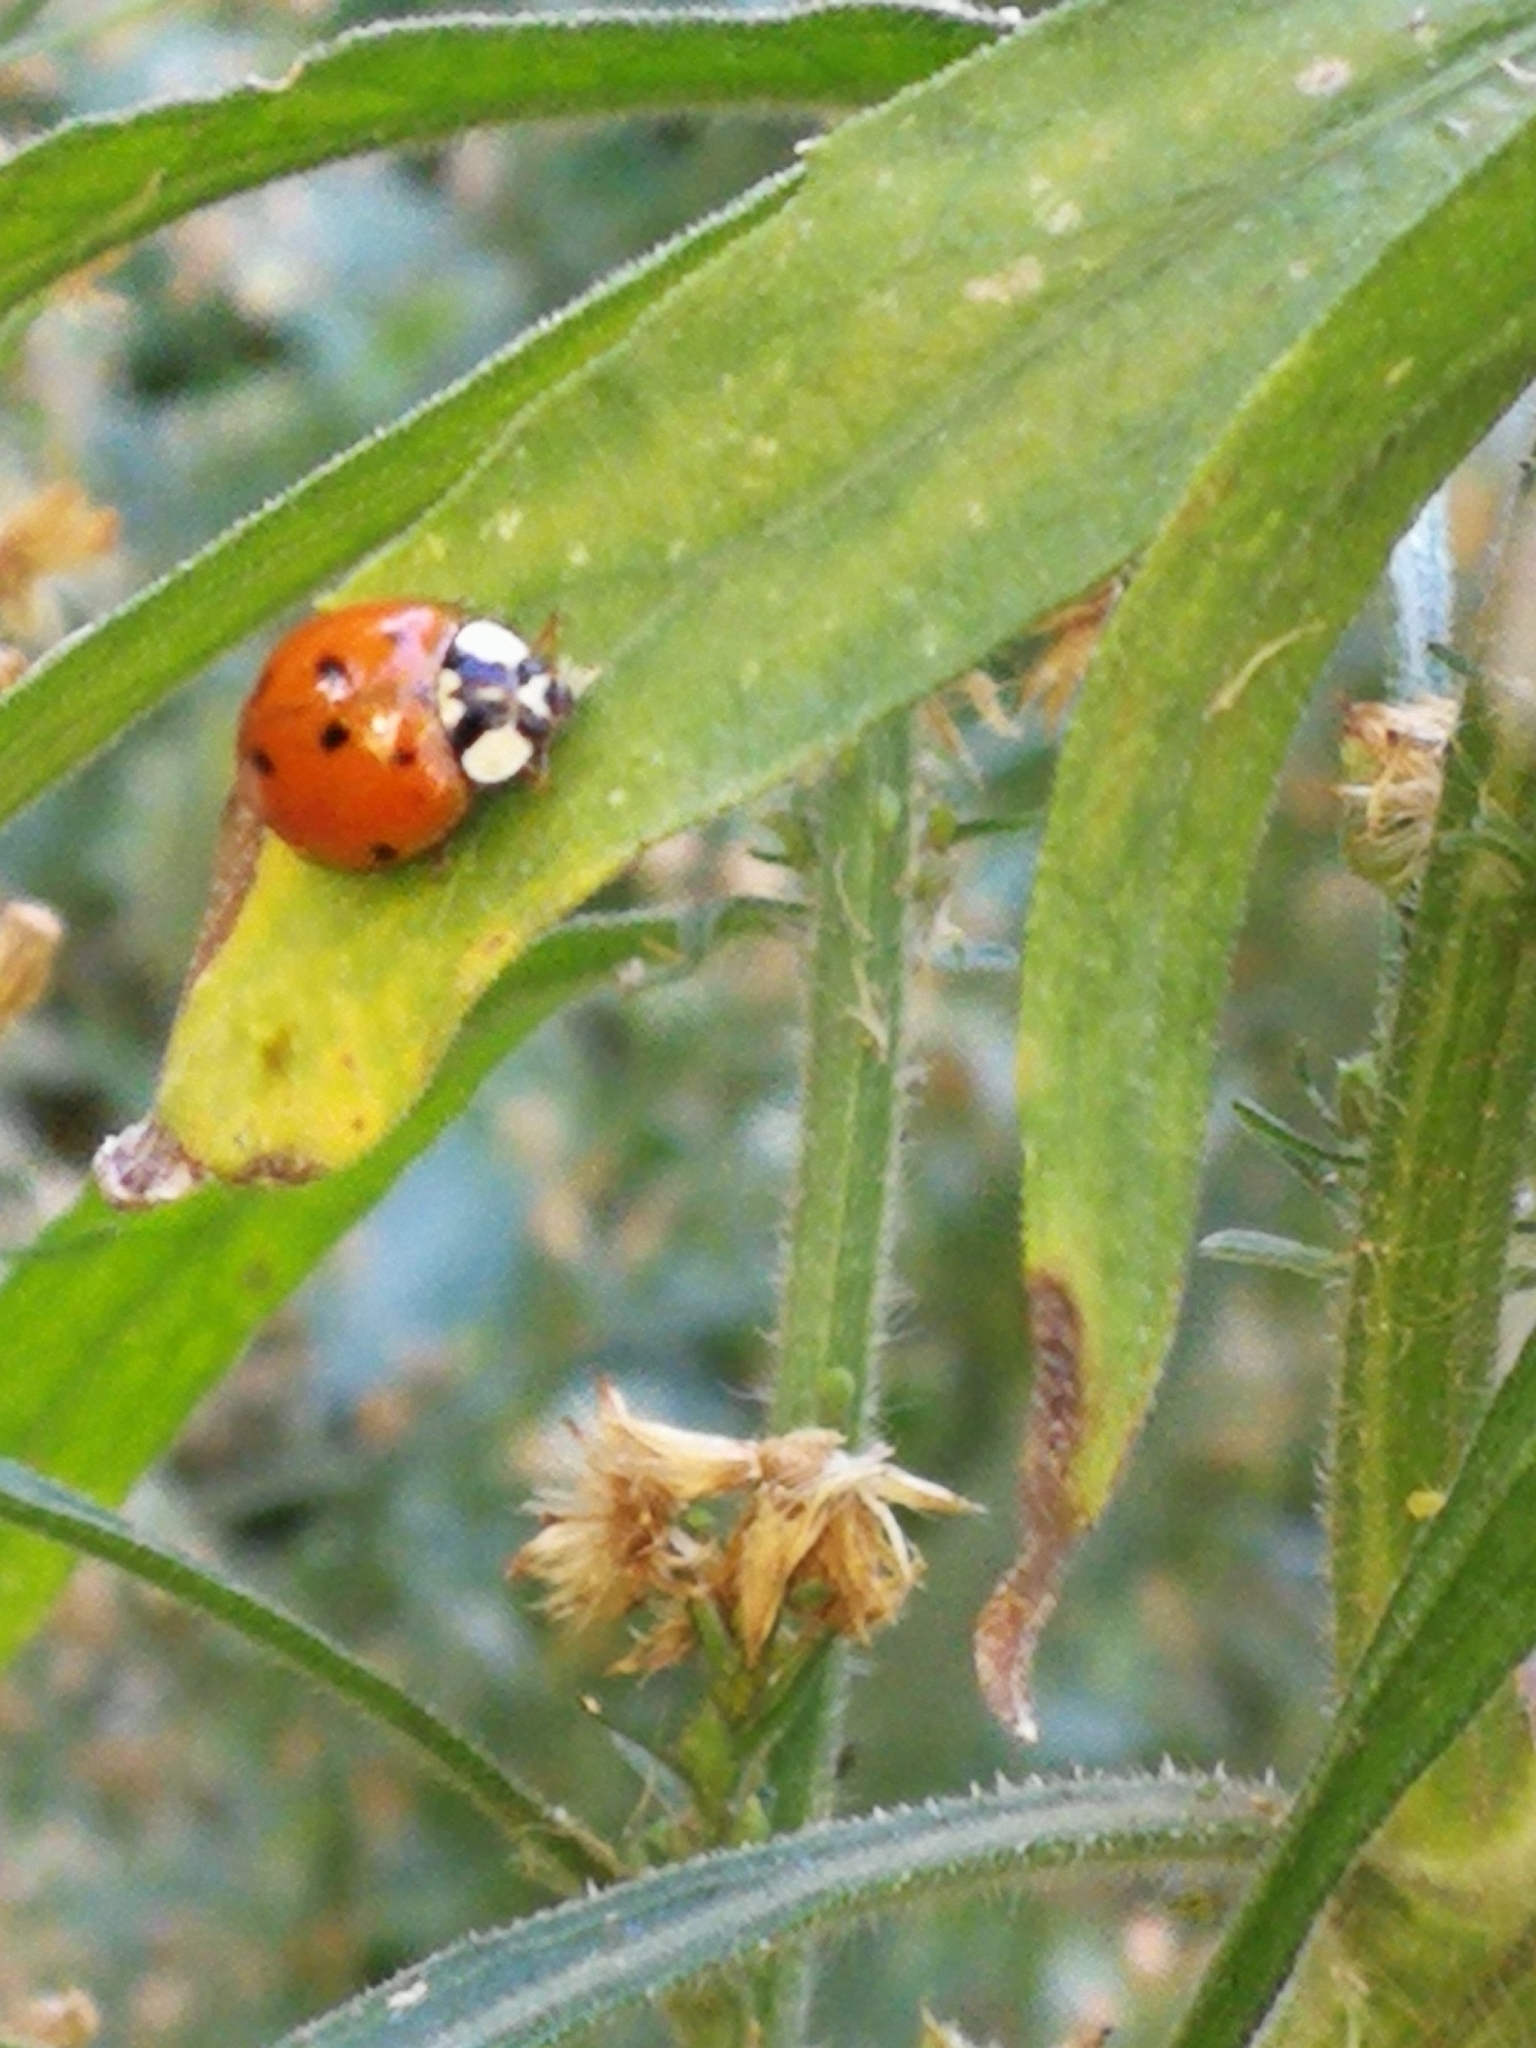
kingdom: Animalia
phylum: Arthropoda
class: Insecta
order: Coleoptera
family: Coccinellidae
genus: Harmonia
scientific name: Harmonia axyridis
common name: Harlequin ladybird
